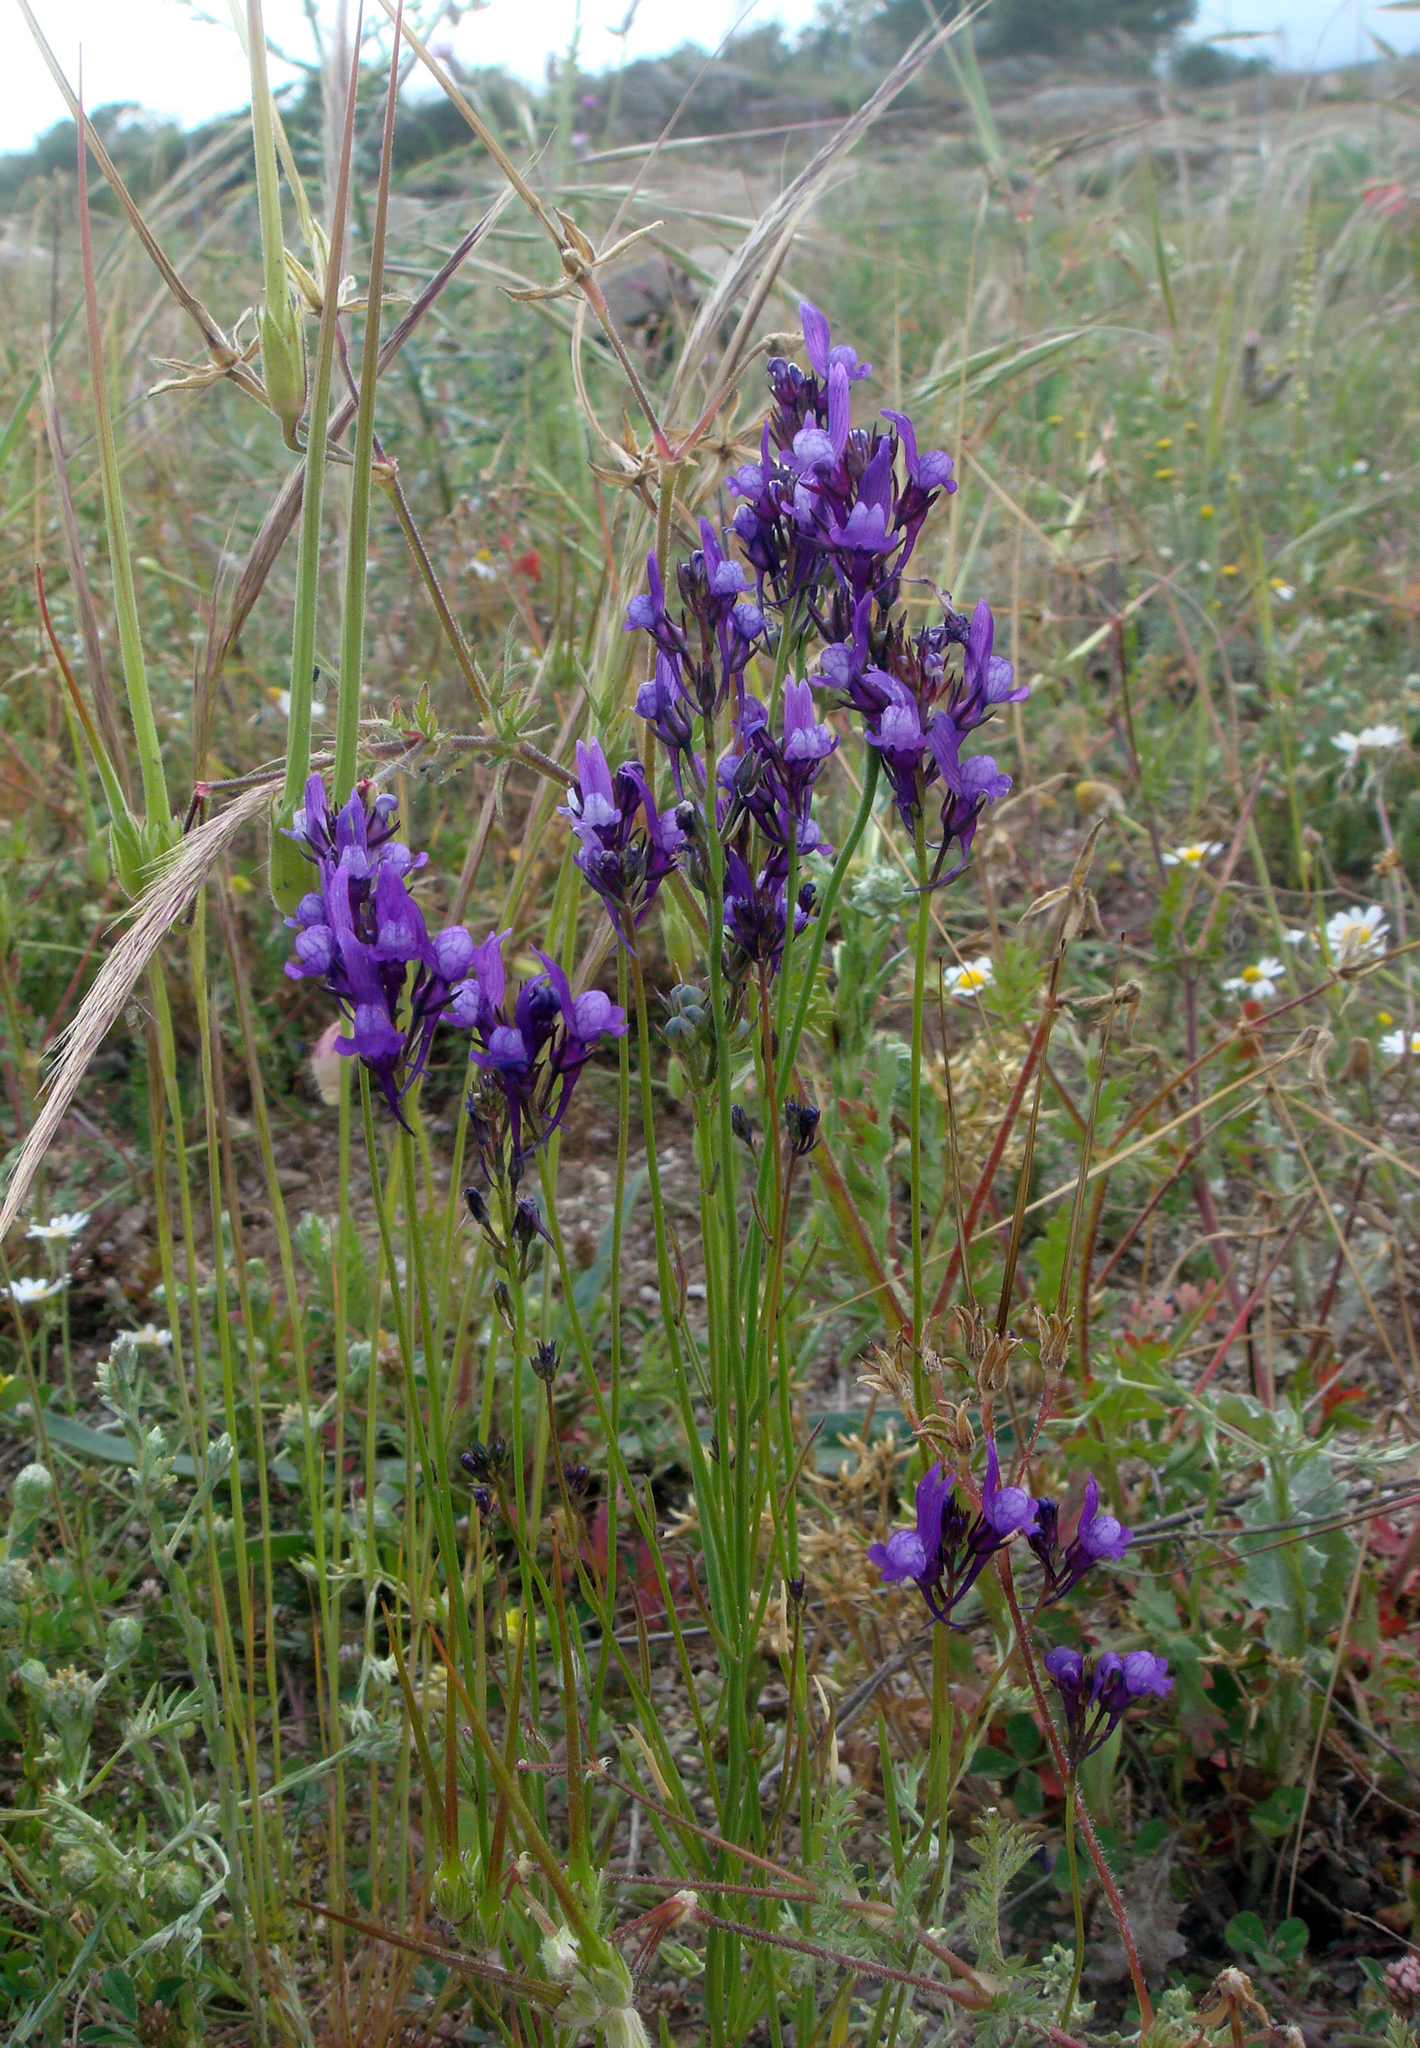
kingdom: Plantae
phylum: Tracheophyta
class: Magnoliopsida
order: Lamiales
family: Plantaginaceae
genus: Linaria
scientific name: Linaria pelisseriana
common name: Jersey toadflax
